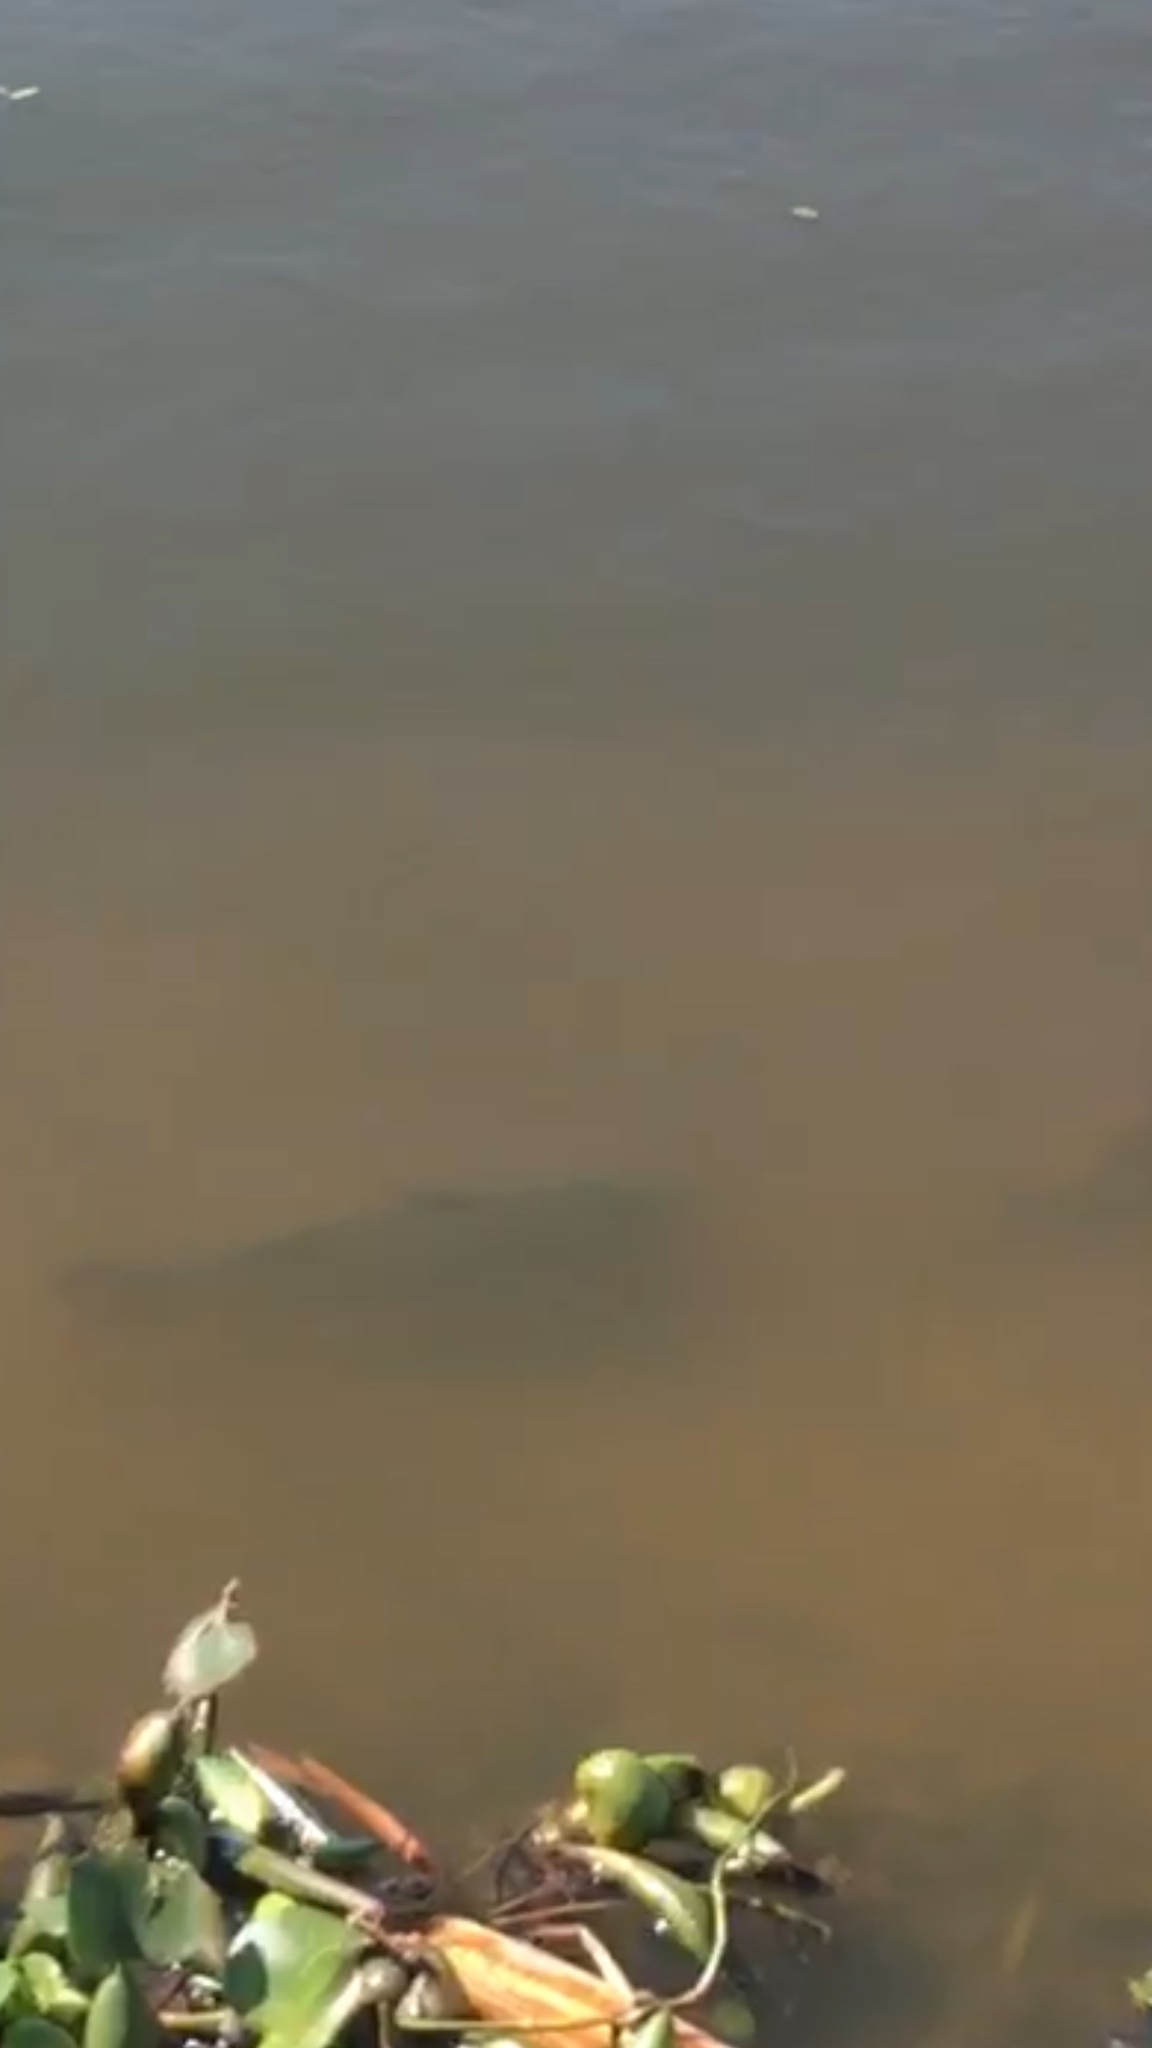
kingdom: Animalia
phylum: Chordata
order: Cypriniformes
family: Cyprinidae
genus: Cyprinus
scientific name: Cyprinus carpio
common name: Common carp
